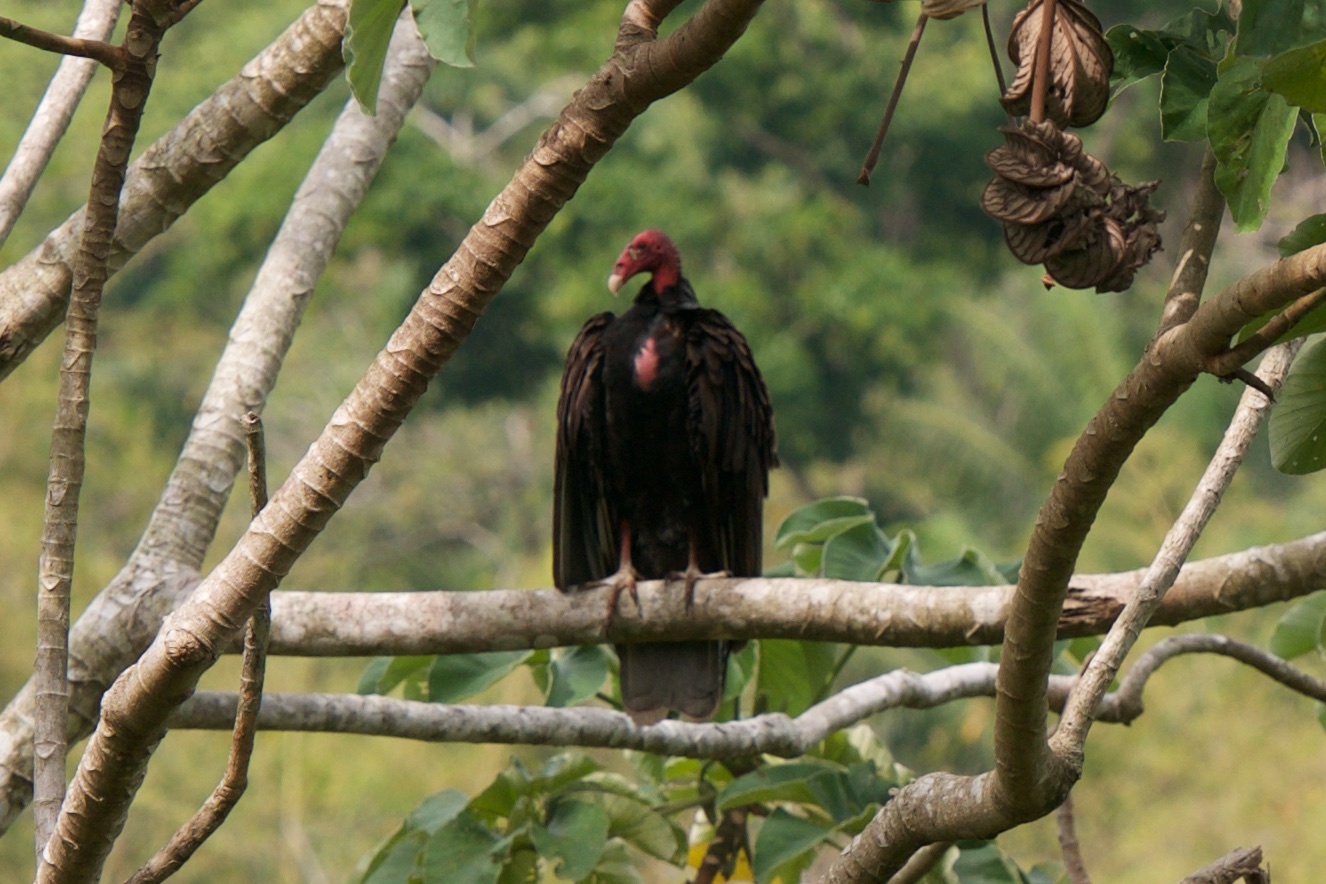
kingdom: Animalia
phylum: Chordata
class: Aves
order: Accipitriformes
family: Cathartidae
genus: Cathartes
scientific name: Cathartes aura
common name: Turkey vulture
